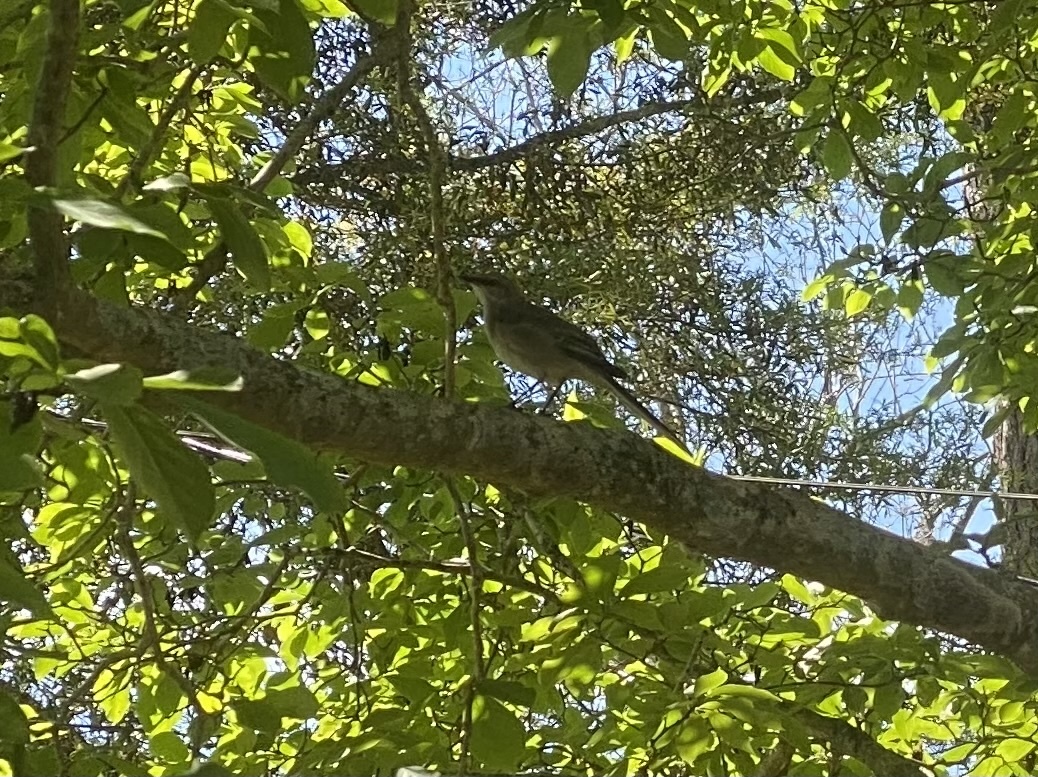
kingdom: Animalia
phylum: Chordata
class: Aves
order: Passeriformes
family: Mimidae
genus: Mimus
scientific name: Mimus polyglottos
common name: Northern mockingbird
